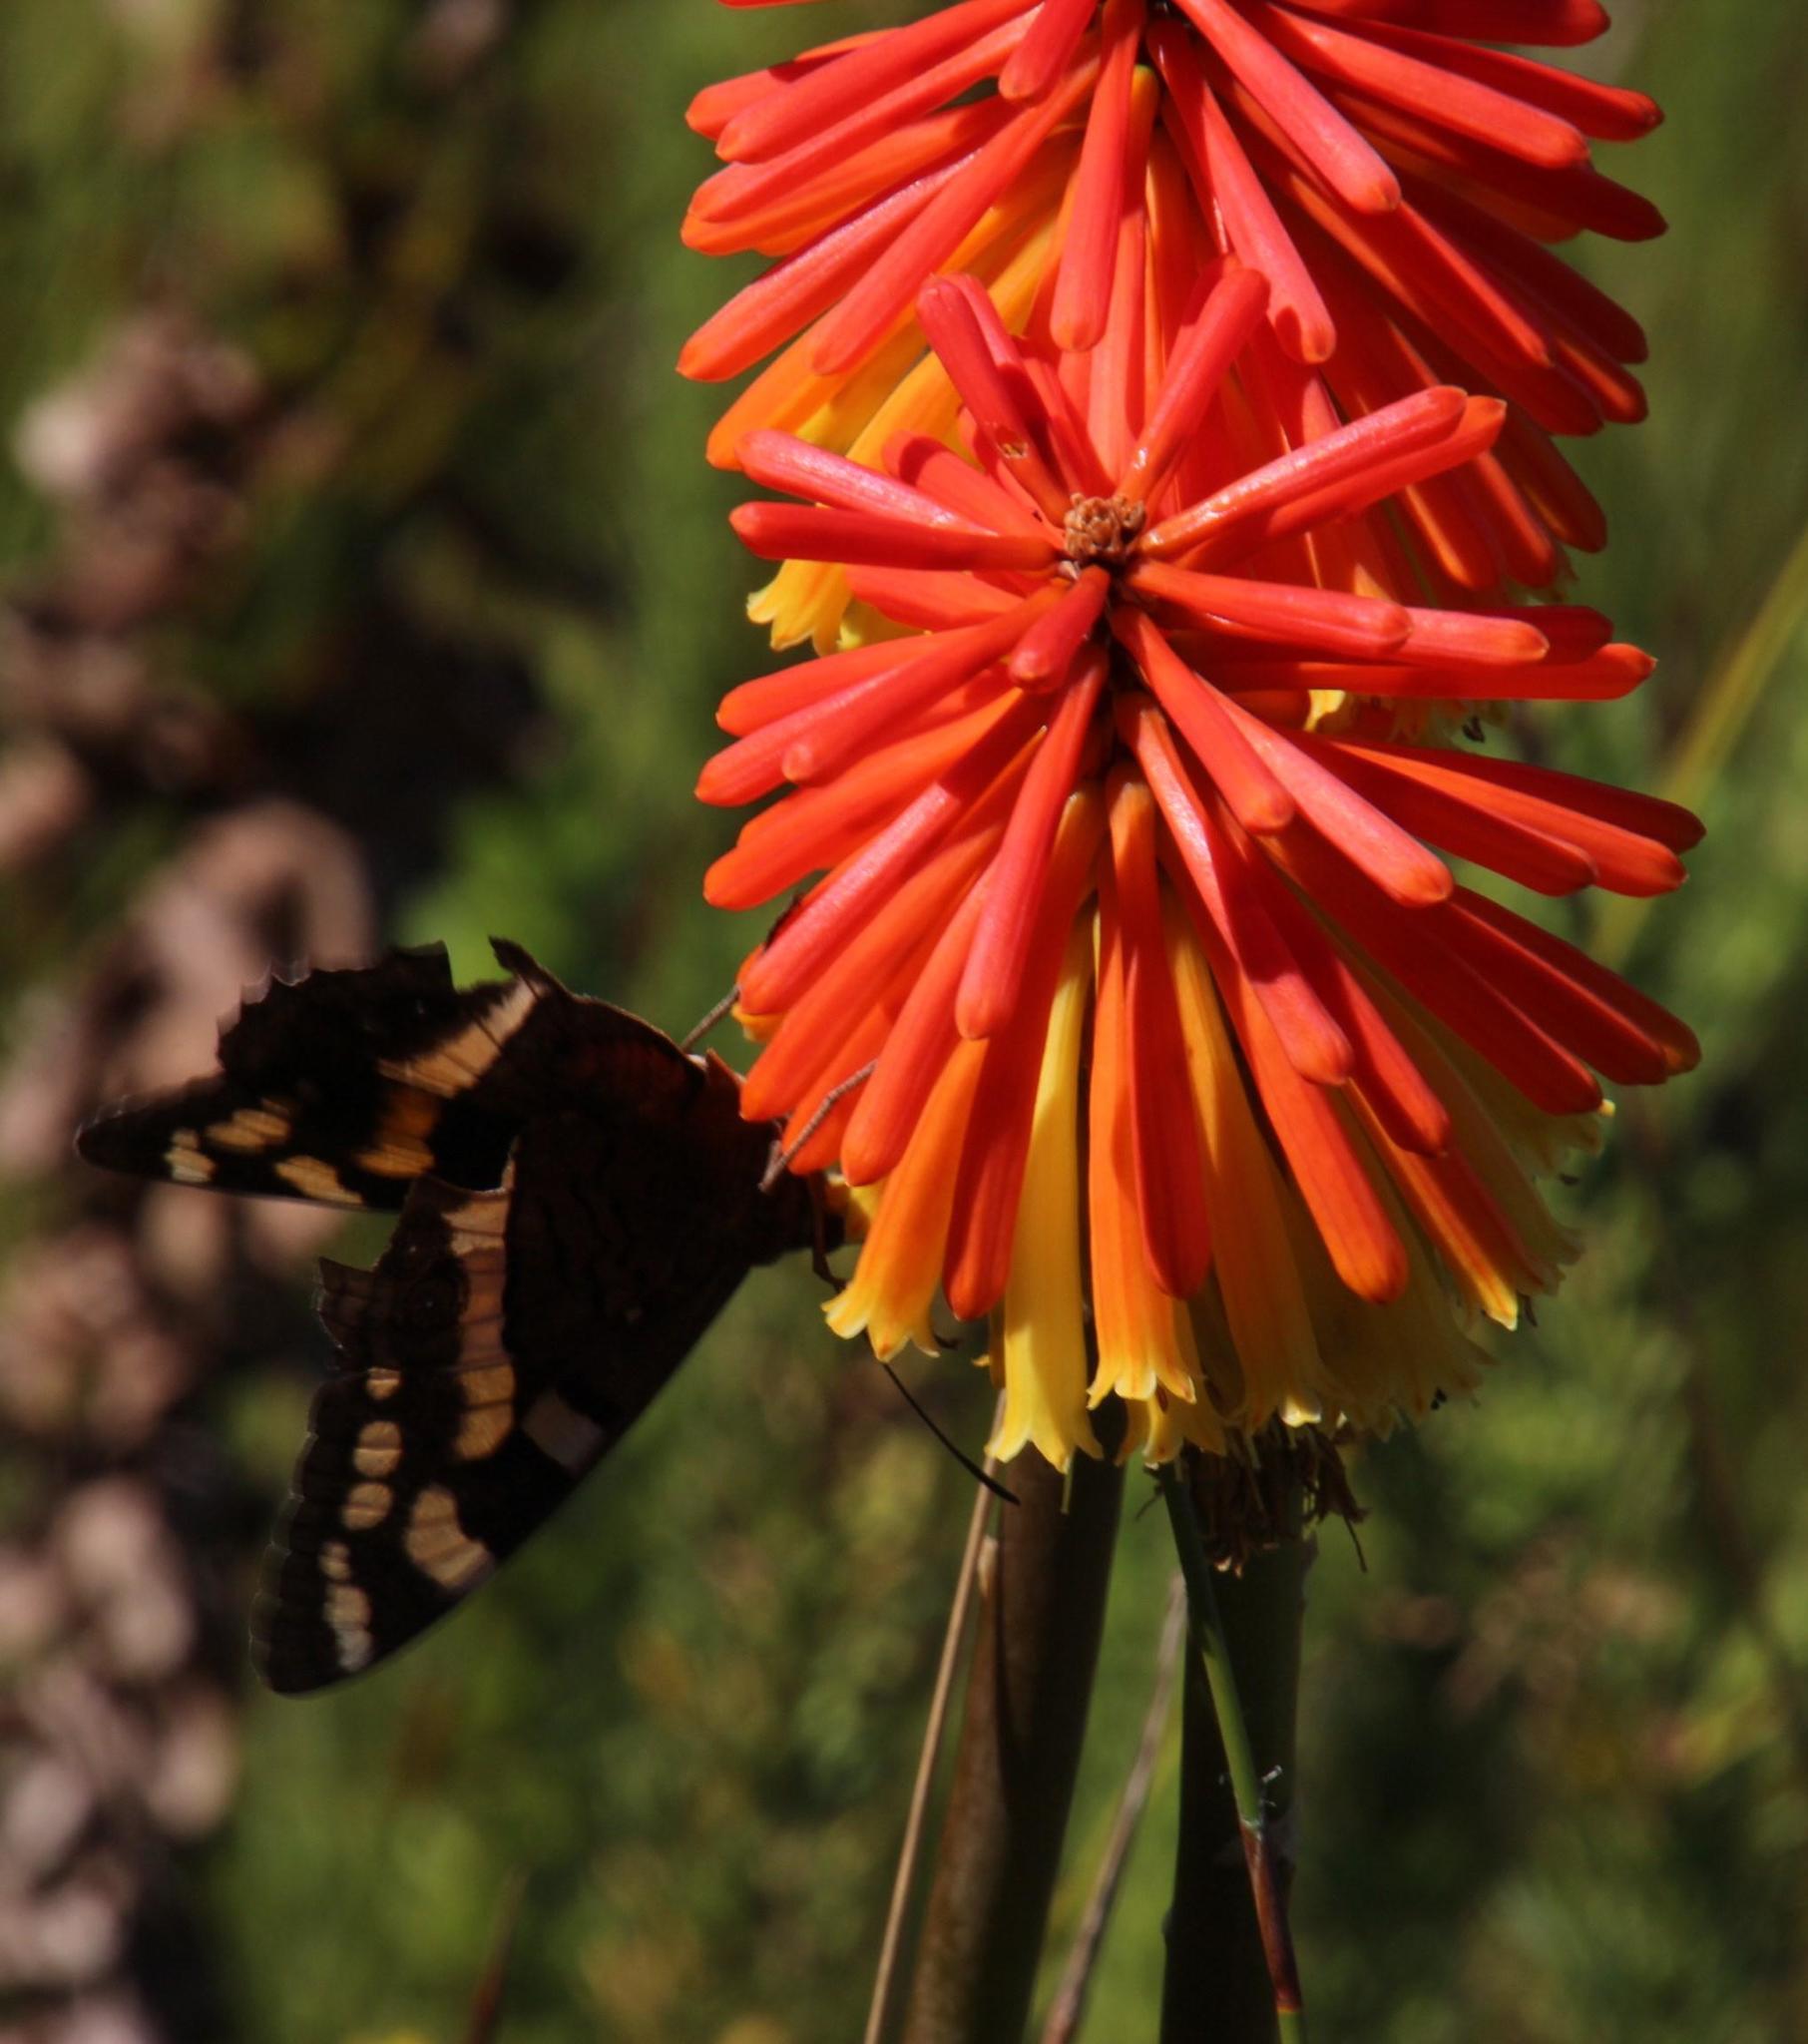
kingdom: Plantae
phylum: Tracheophyta
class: Liliopsida
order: Asparagales
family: Asphodelaceae
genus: Kniphofia
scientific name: Kniphofia uvaria
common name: Red-hot-poker
